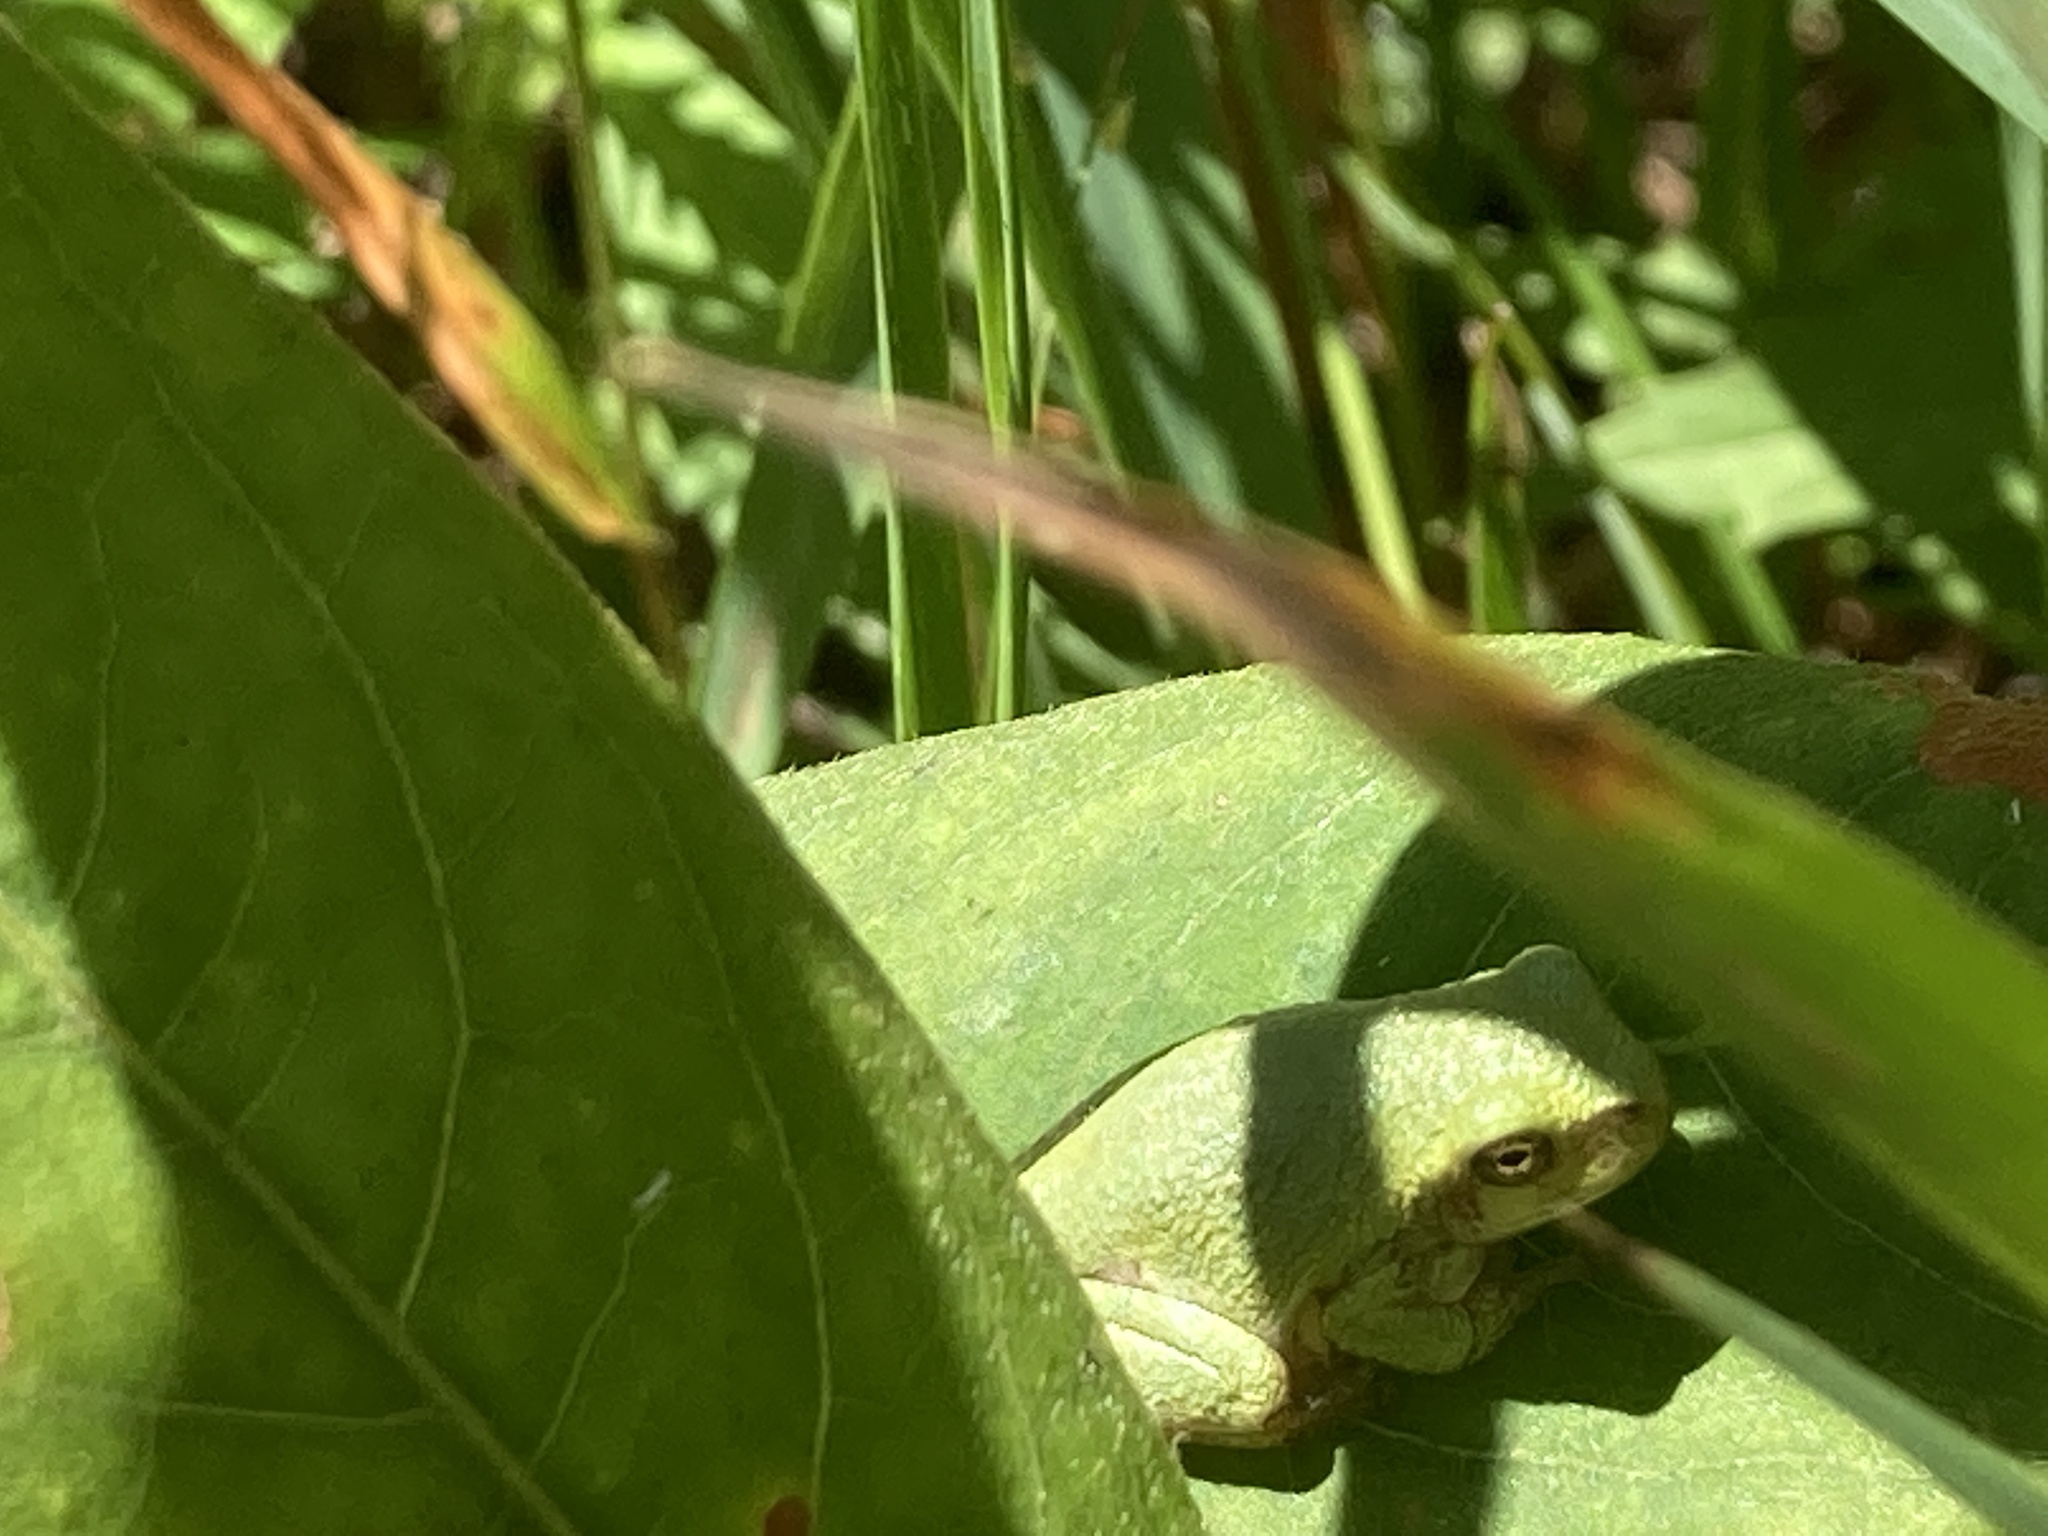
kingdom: Animalia
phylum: Chordata
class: Amphibia
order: Anura
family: Hylidae
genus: Dryophytes
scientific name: Dryophytes versicolor
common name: Gray treefrog
